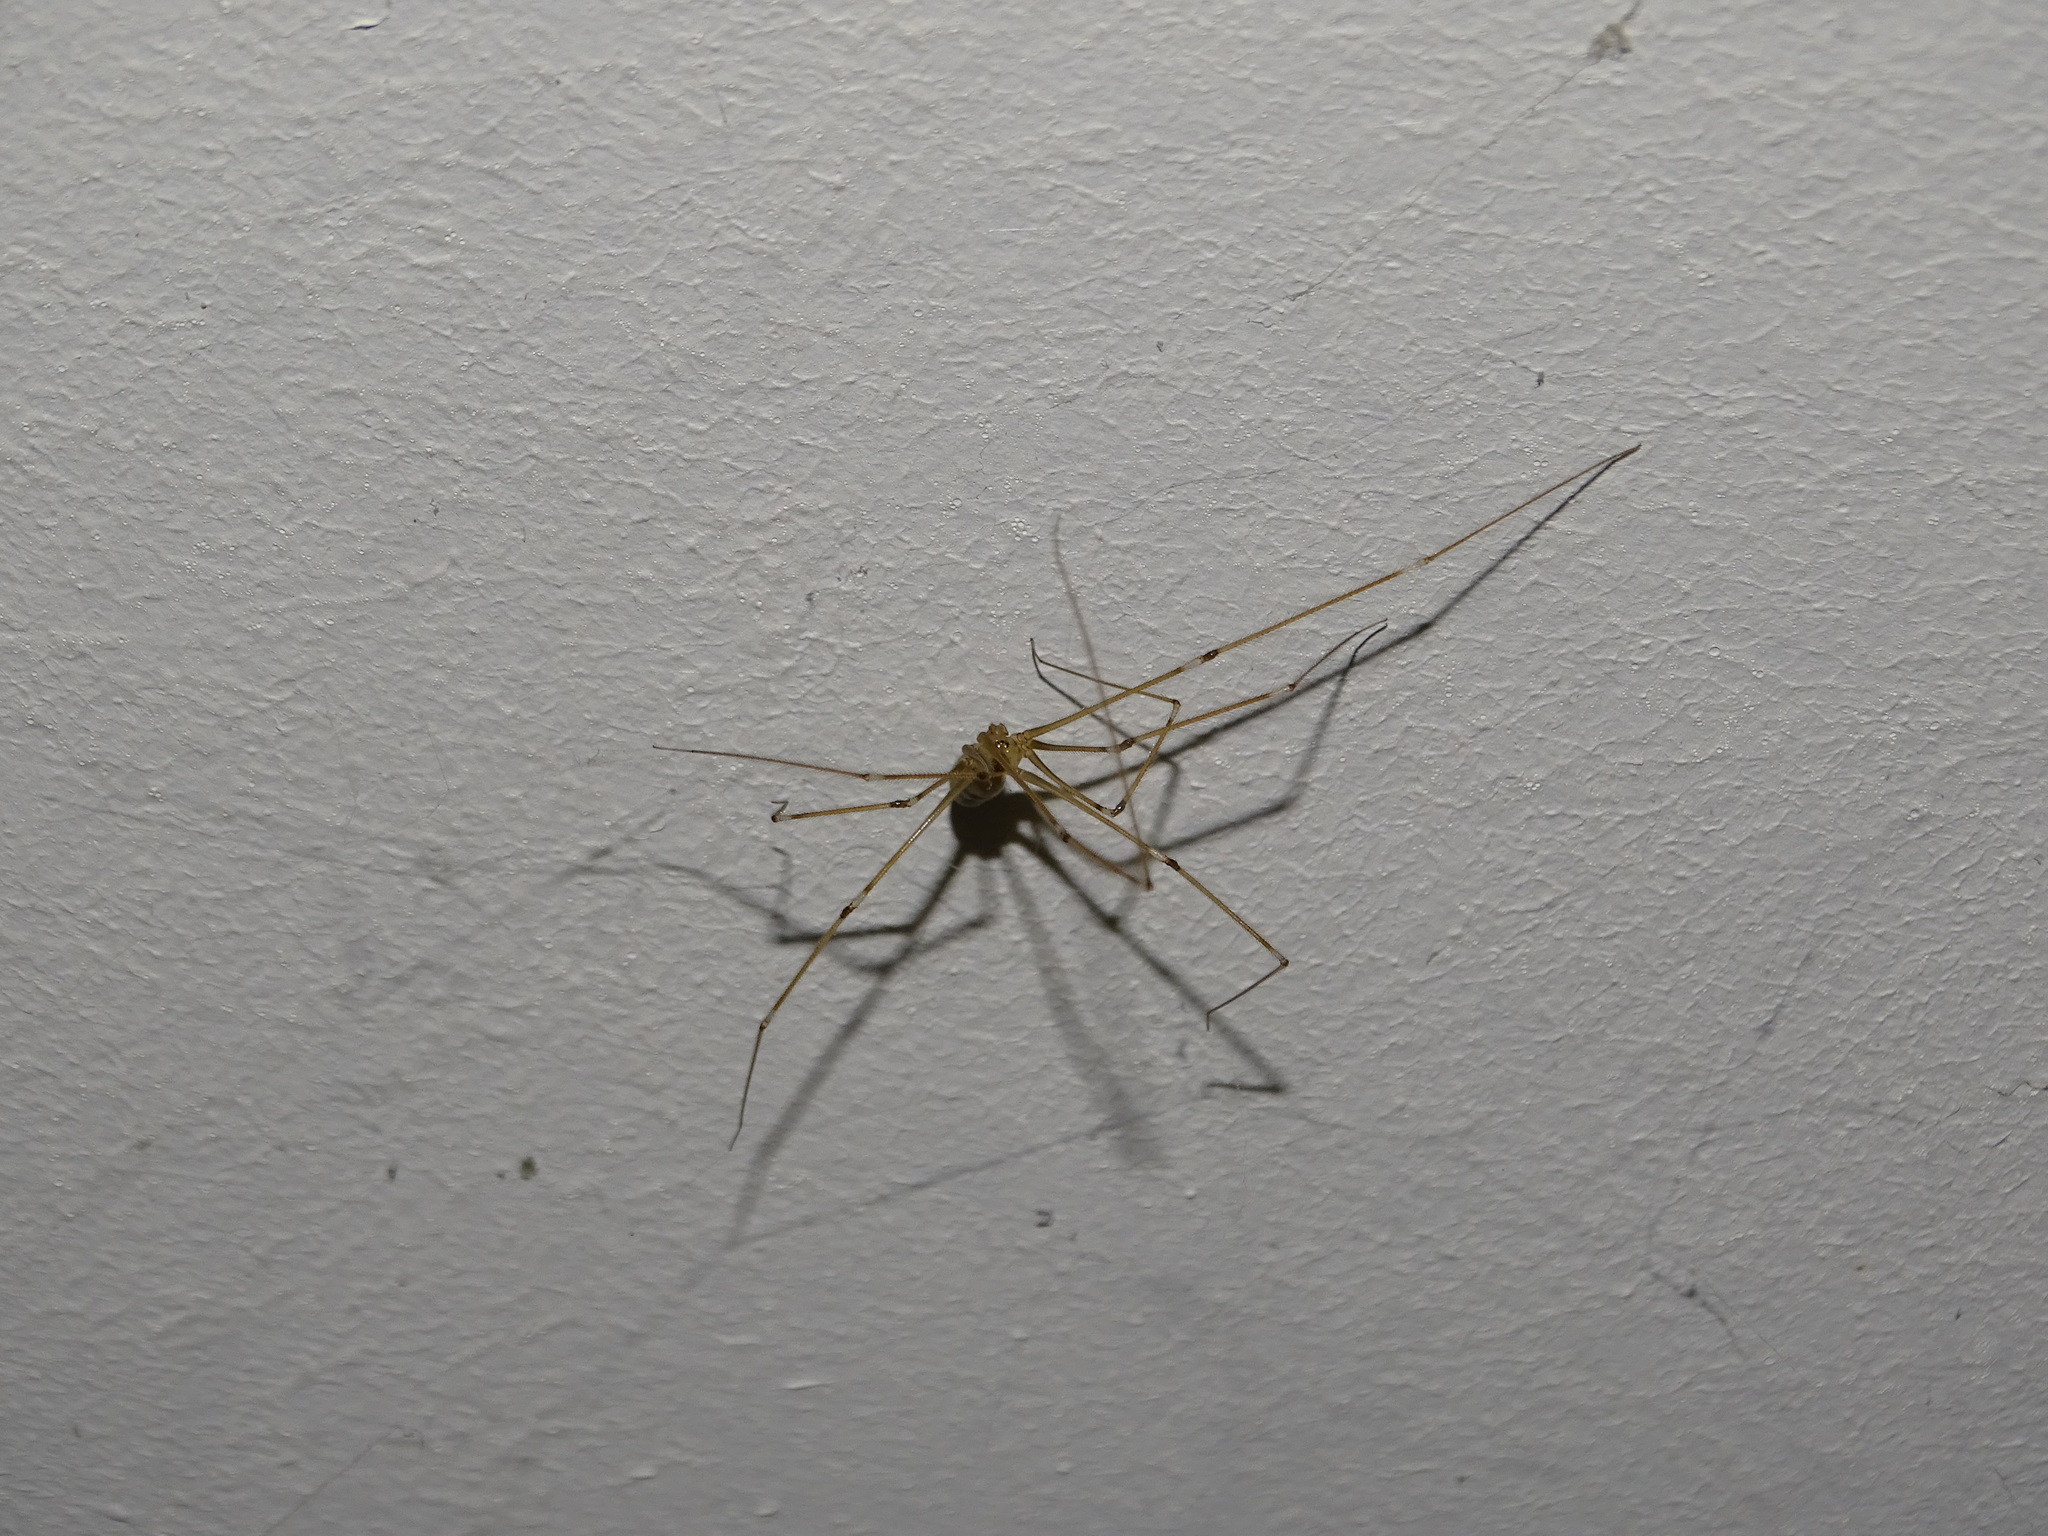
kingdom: Animalia
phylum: Arthropoda
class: Arachnida
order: Araneae
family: Pholcidae
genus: Pholcus
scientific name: Pholcus phalangioides
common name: Longbodied cellar spider
